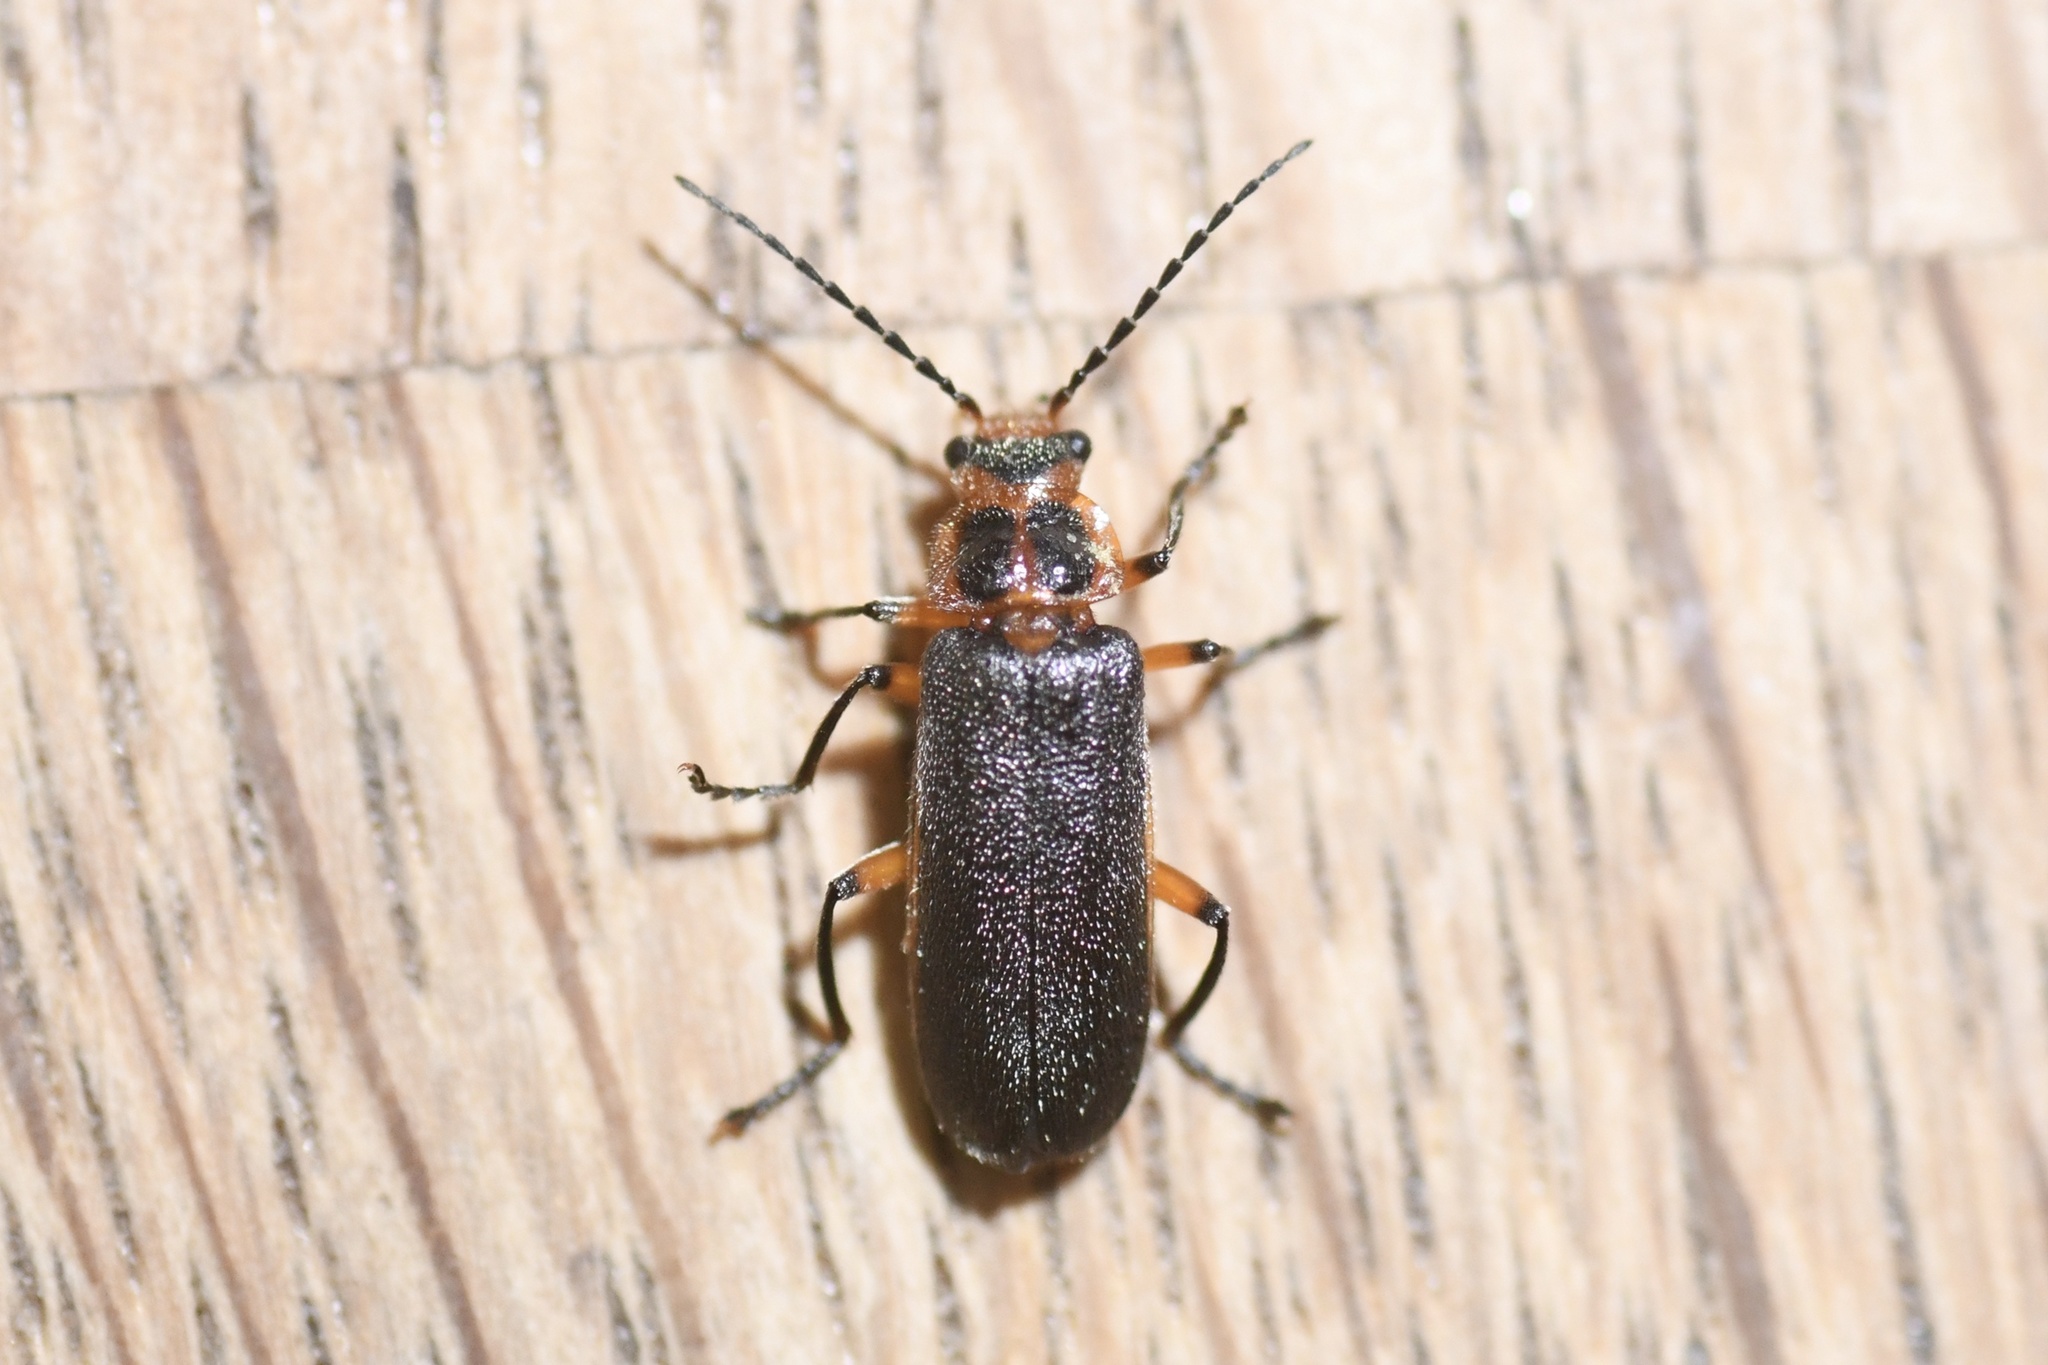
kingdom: Animalia
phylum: Arthropoda
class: Insecta
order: Coleoptera
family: Cantharidae
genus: Atalantycha
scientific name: Atalantycha bilineata
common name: Two-lined leatherwing
